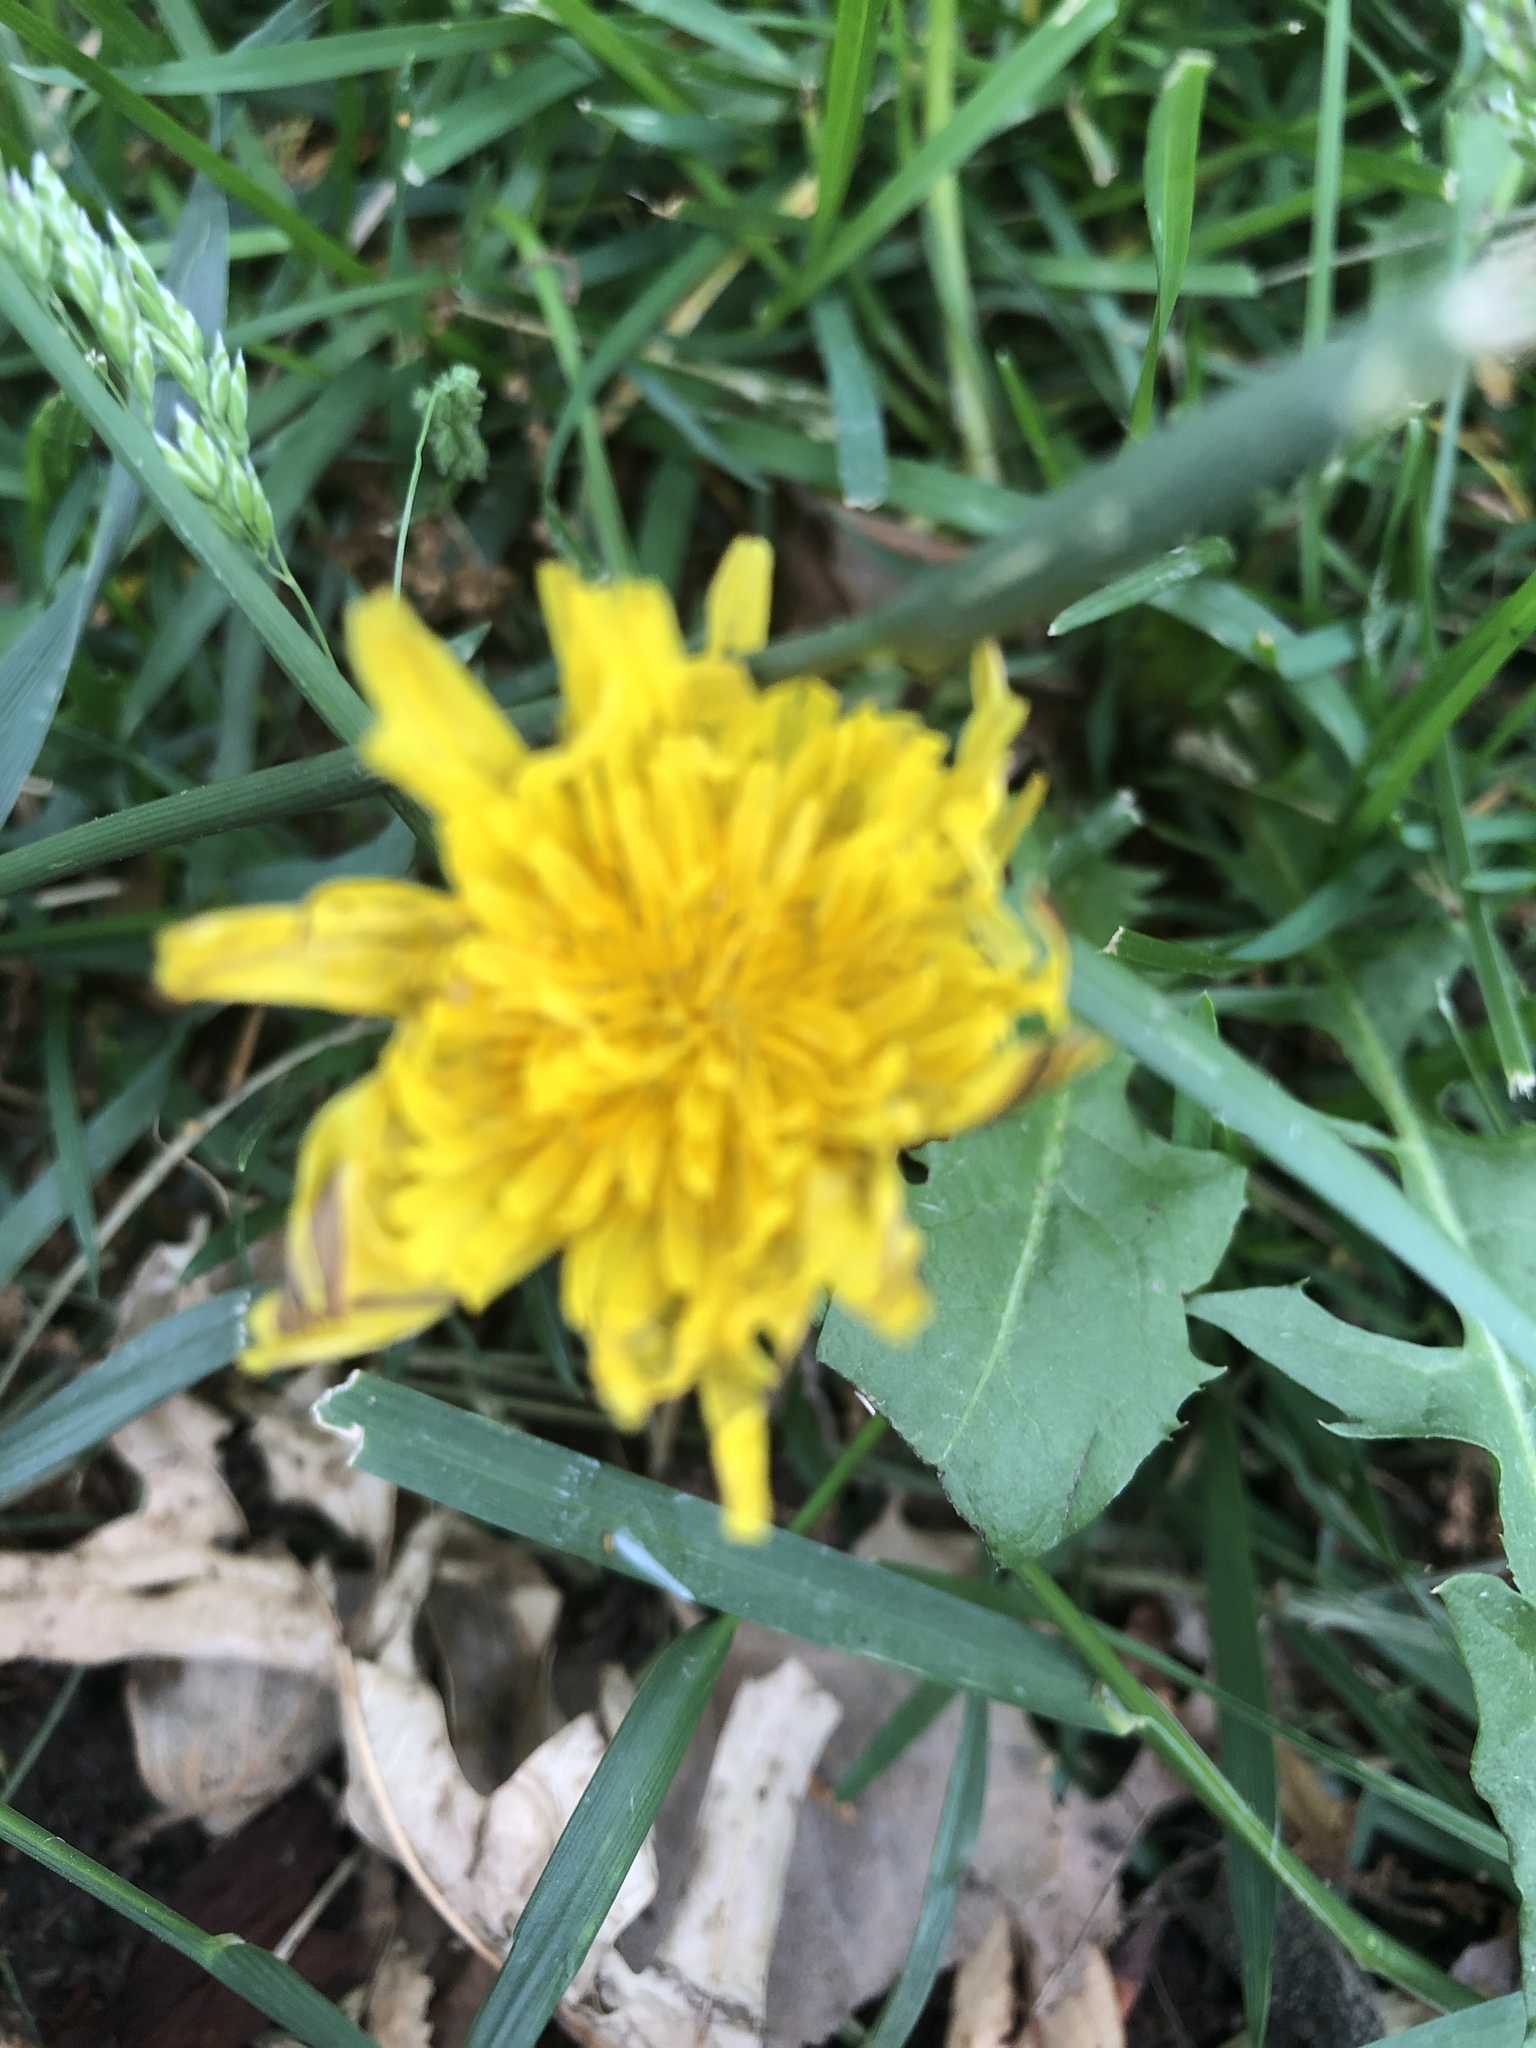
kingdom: Plantae
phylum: Tracheophyta
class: Magnoliopsida
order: Asterales
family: Asteraceae
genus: Taraxacum
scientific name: Taraxacum officinale
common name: Common dandelion
